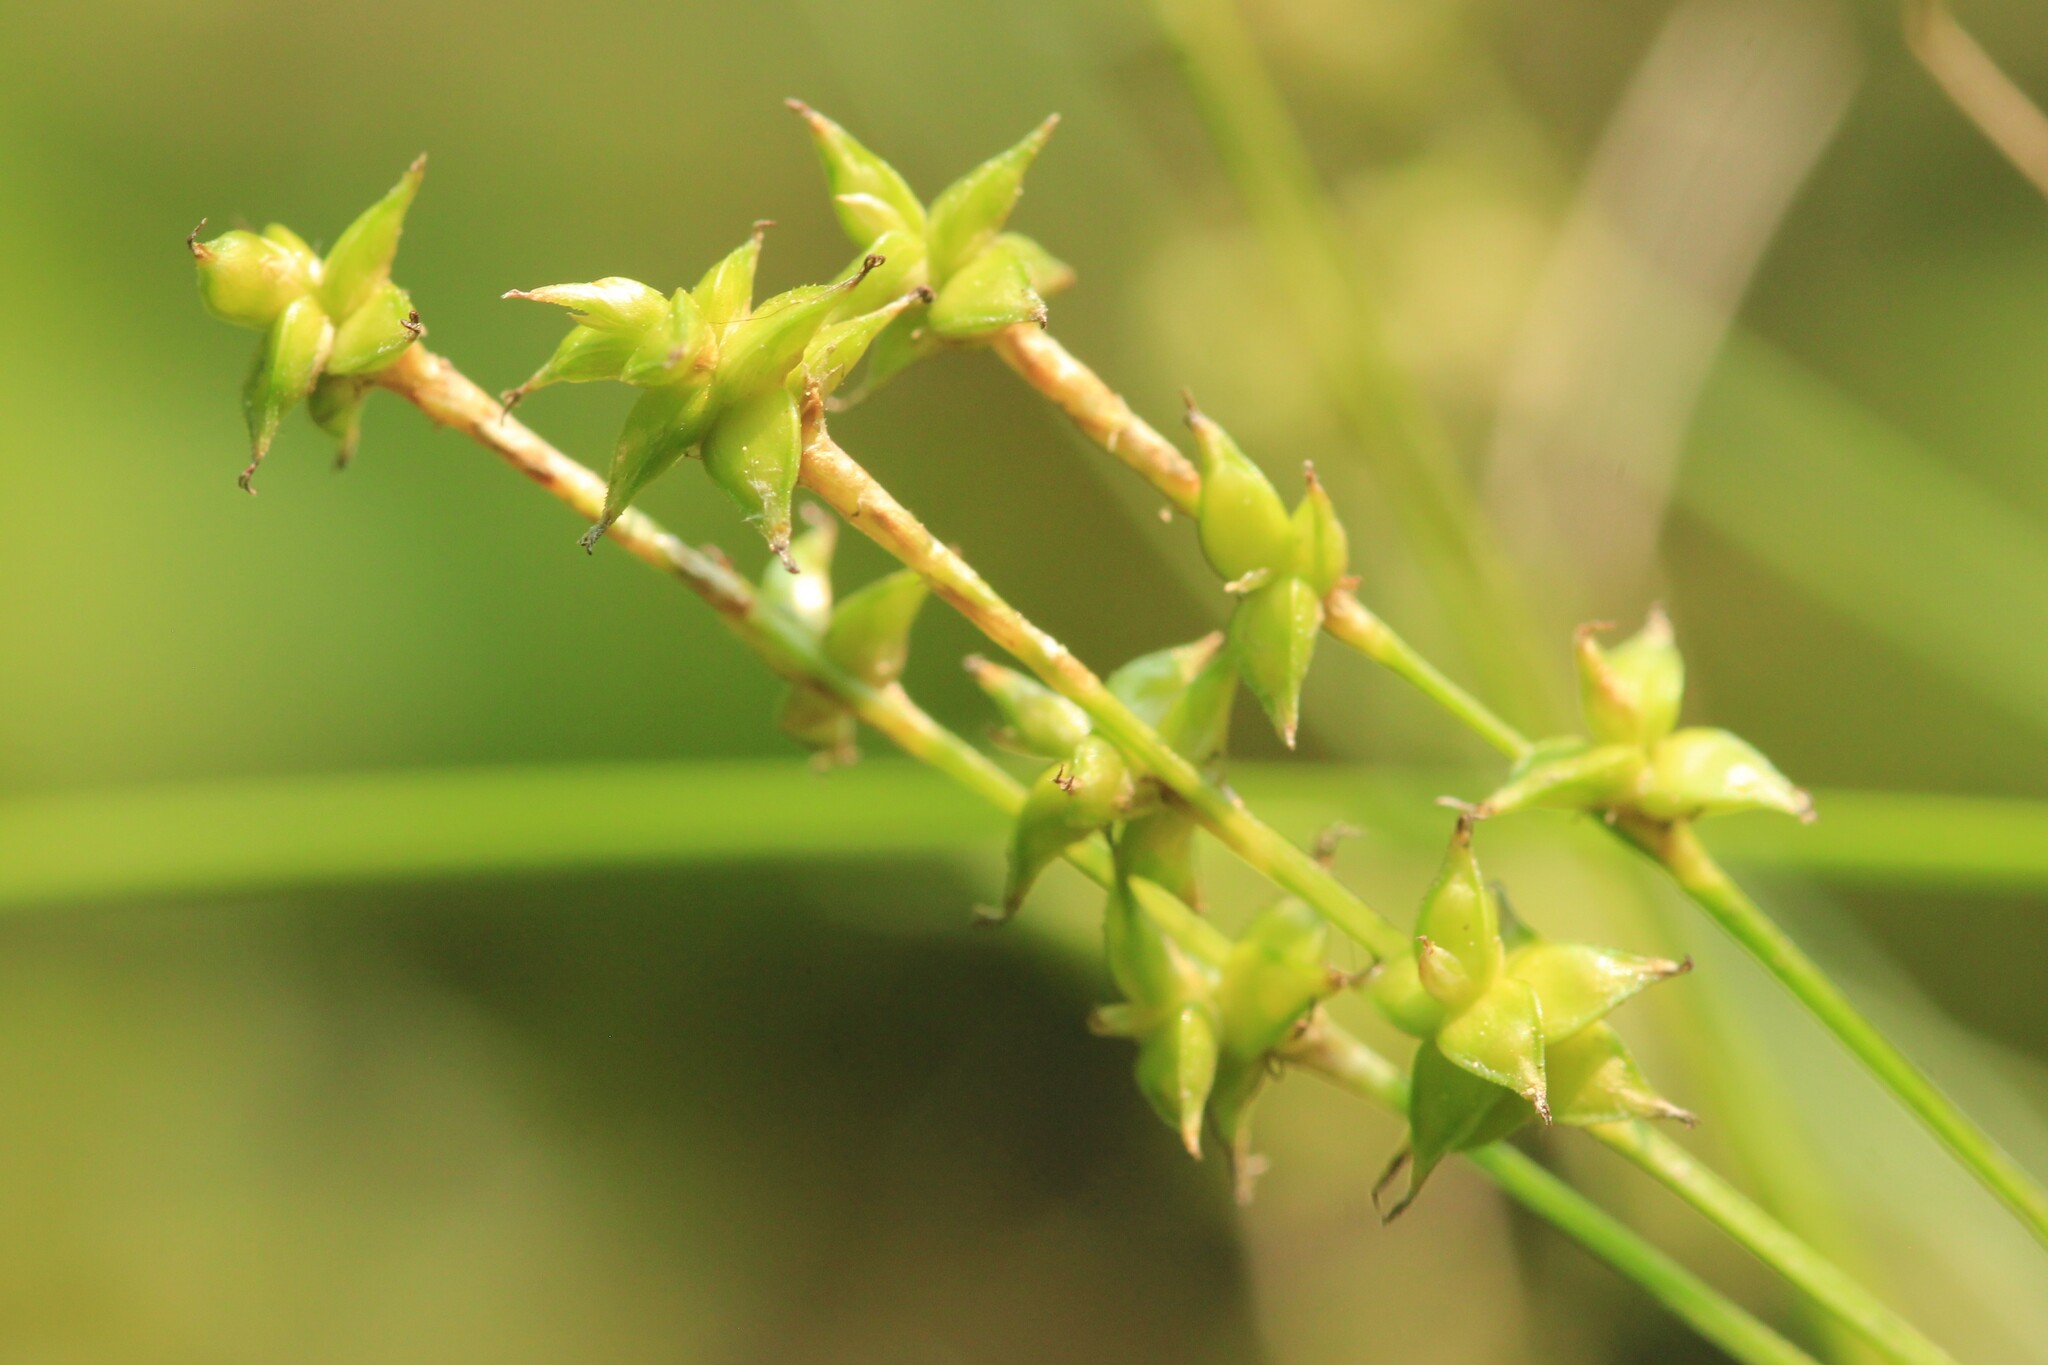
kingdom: Plantae
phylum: Tracheophyta
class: Liliopsida
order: Poales
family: Cyperaceae
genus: Carex
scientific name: Carex interior
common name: Inland sedge
